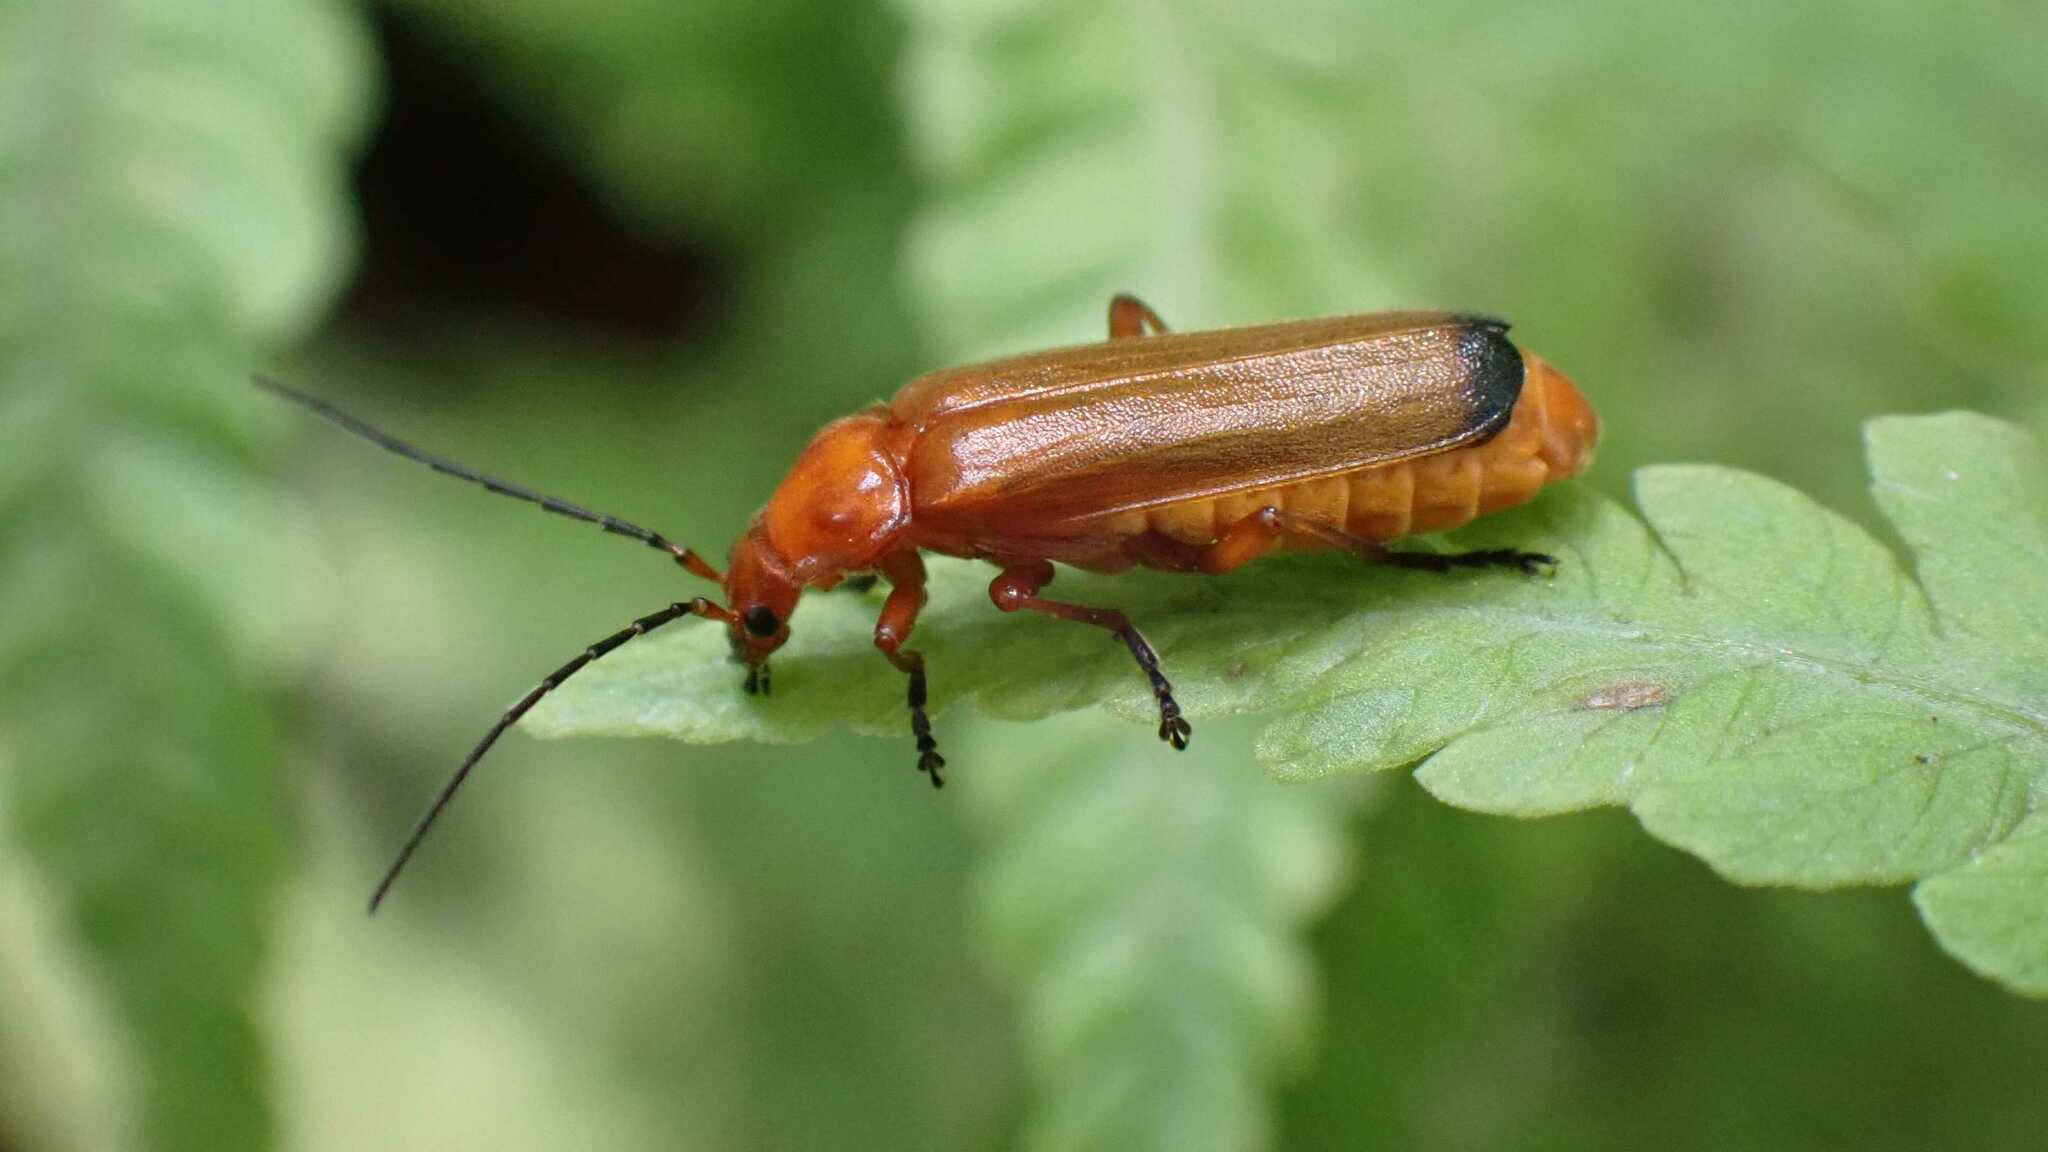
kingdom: Animalia
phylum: Arthropoda
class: Insecta
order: Coleoptera
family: Cantharidae
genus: Rhagonycha
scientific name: Rhagonycha fulva
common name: Common red soldier beetle
